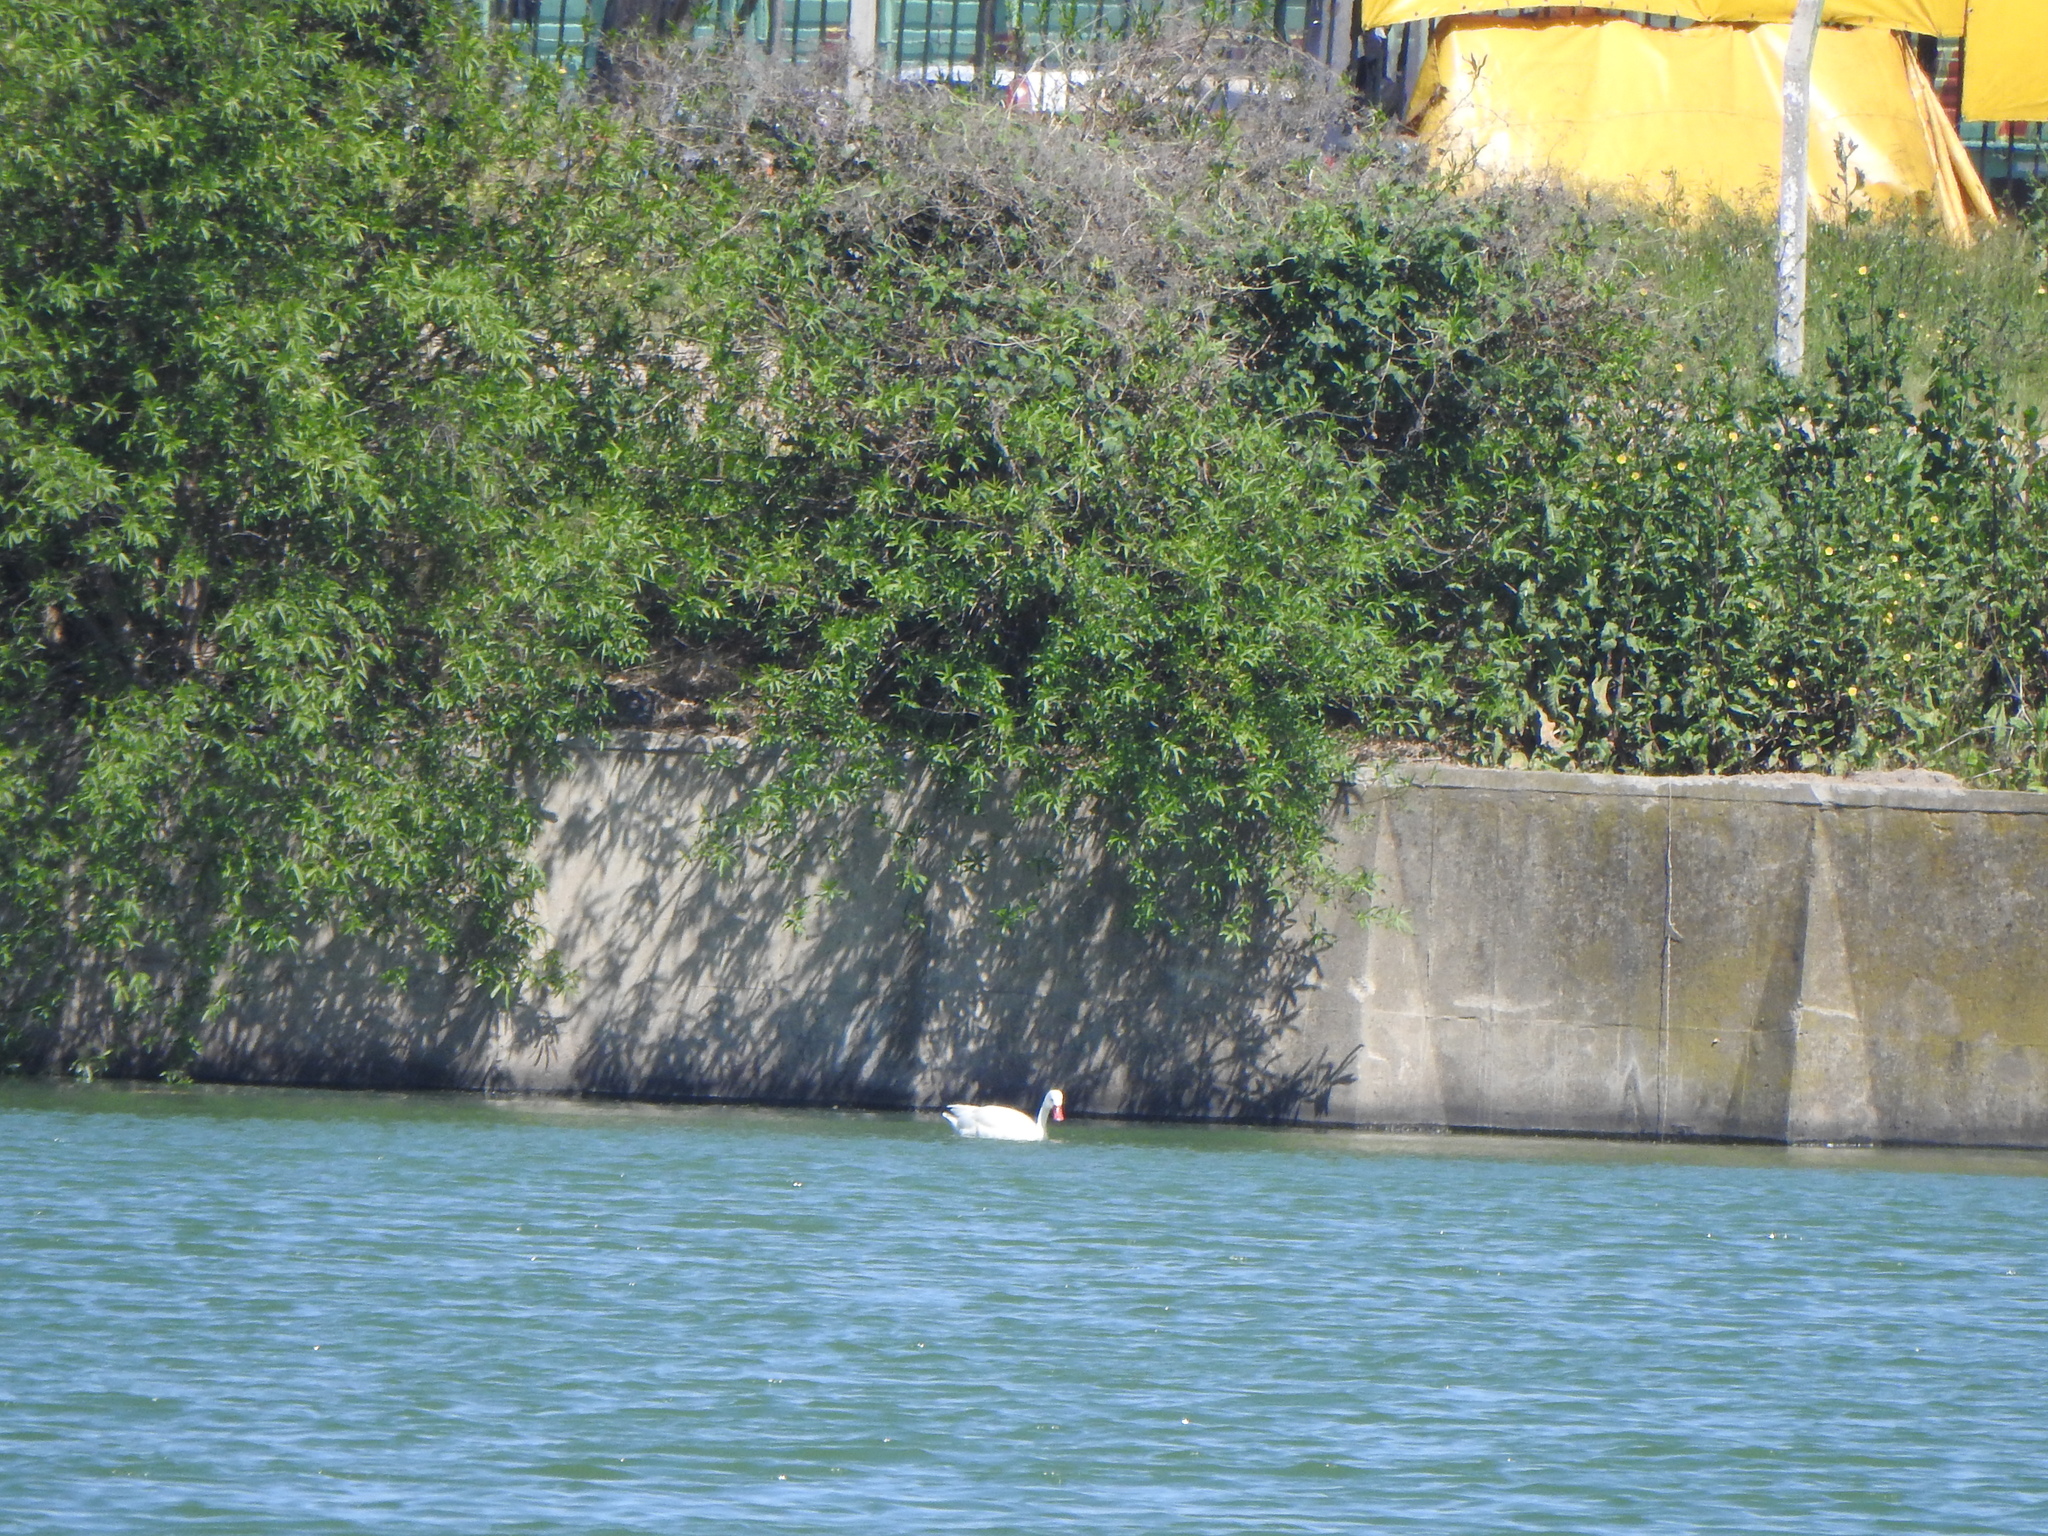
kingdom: Animalia
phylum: Chordata
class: Aves
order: Anseriformes
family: Anatidae
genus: Coscoroba
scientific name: Coscoroba coscoroba
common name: Coscoroba swan
